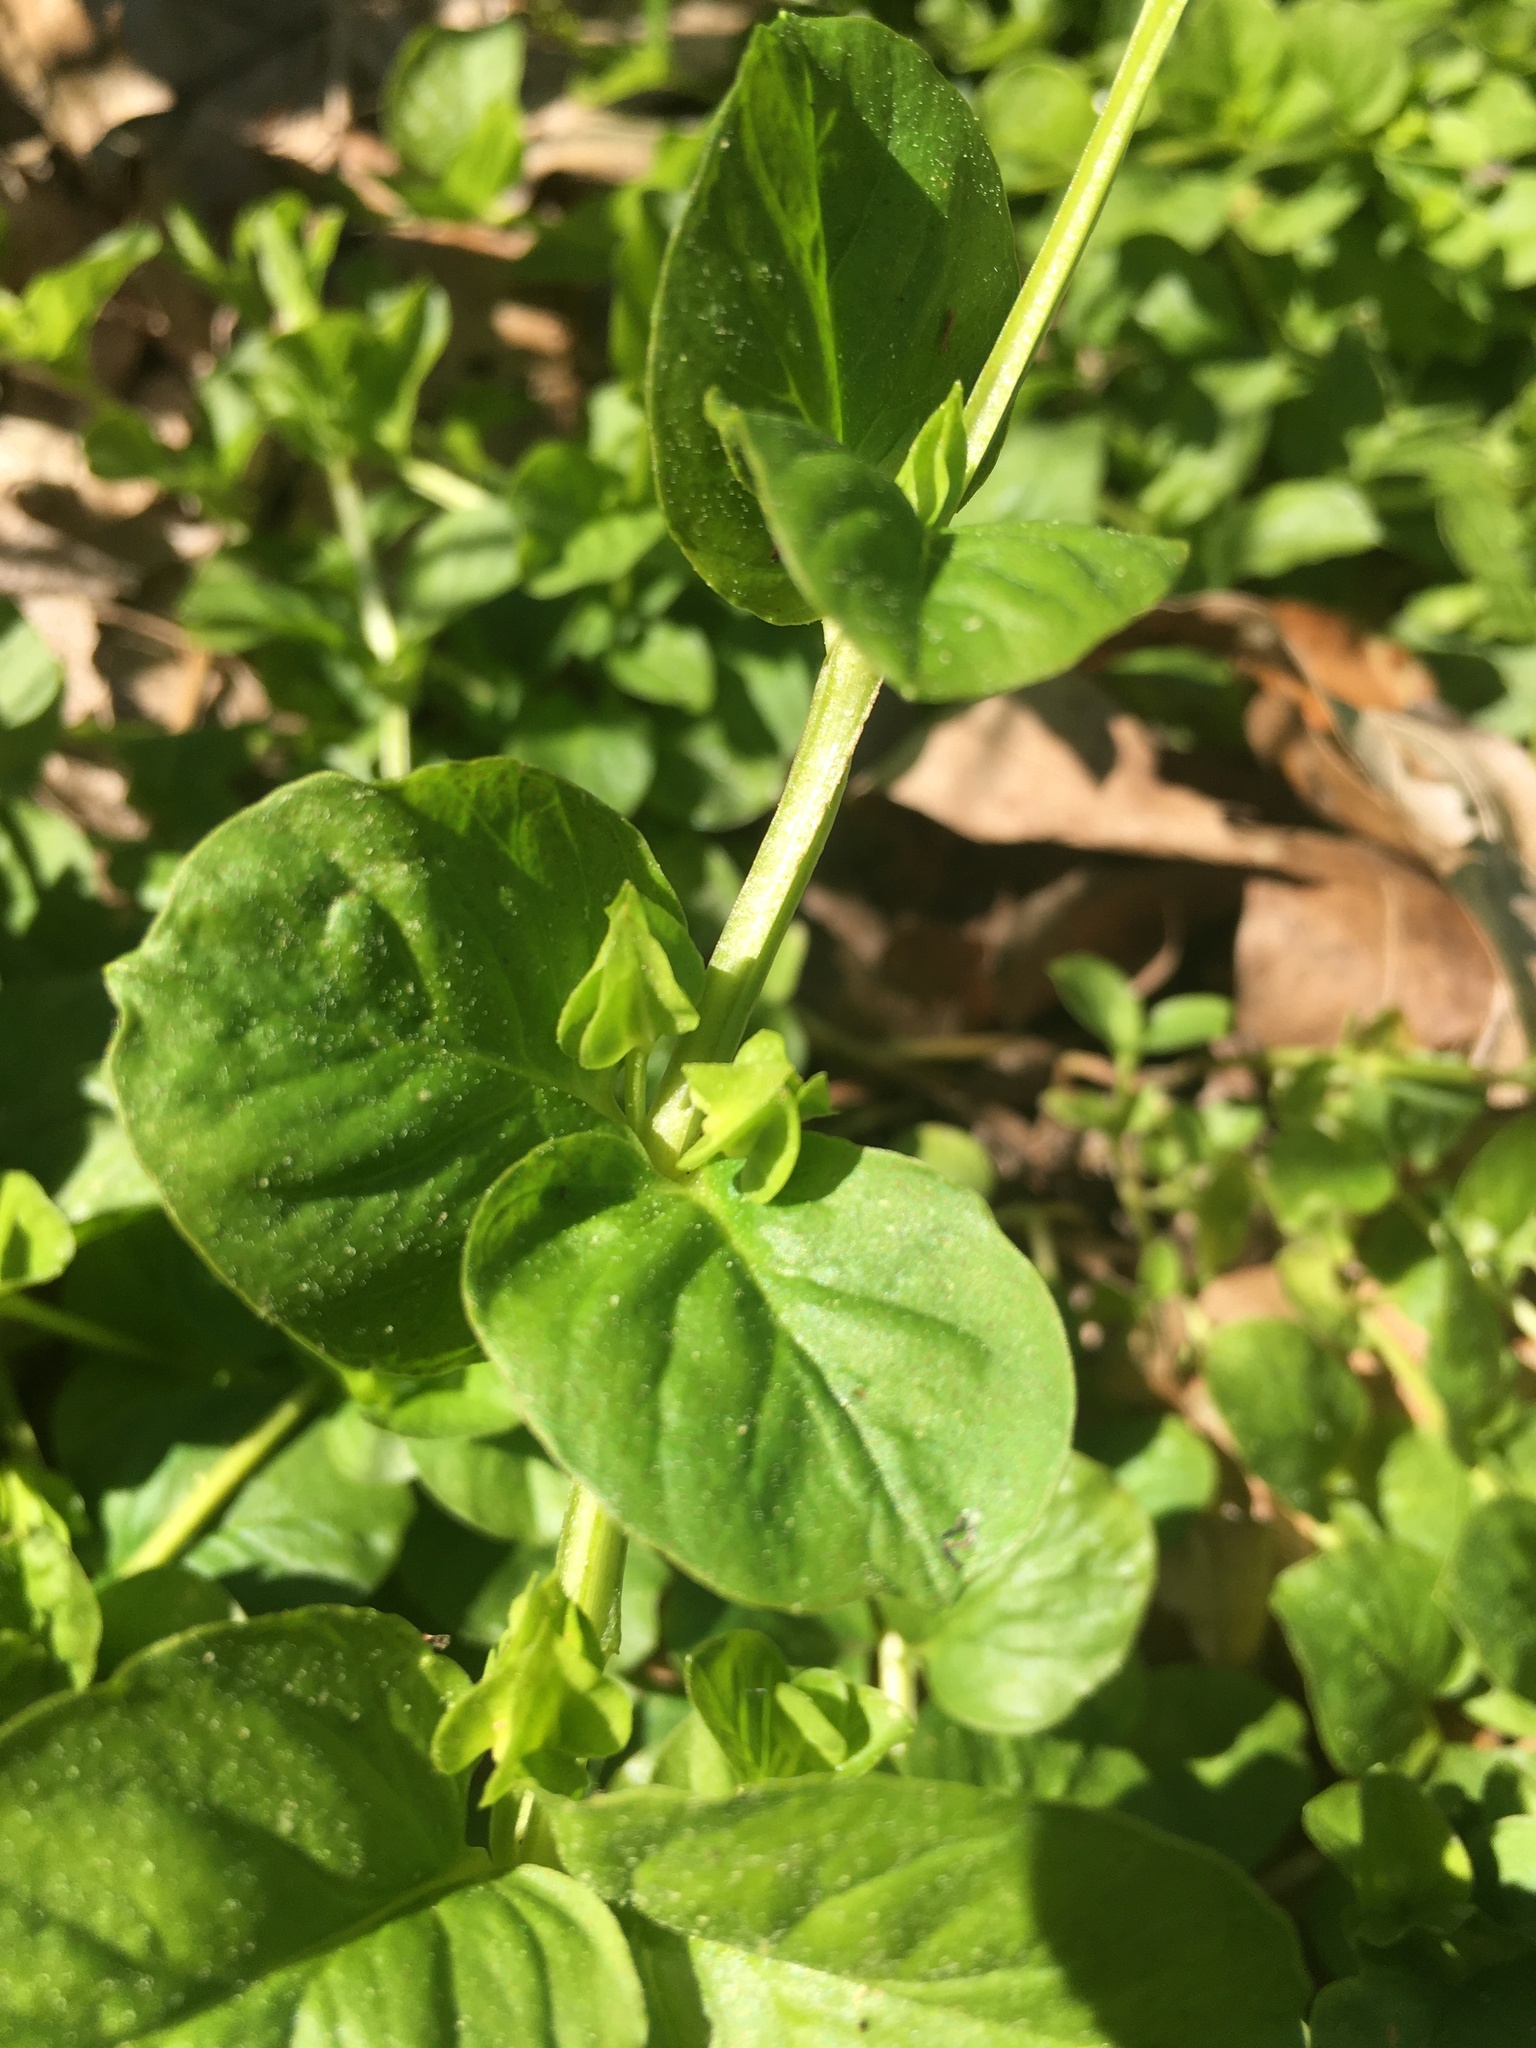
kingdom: Plantae
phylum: Tracheophyta
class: Magnoliopsida
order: Ericales
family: Primulaceae
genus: Lysimachia
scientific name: Lysimachia nummularia
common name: Moneywort
